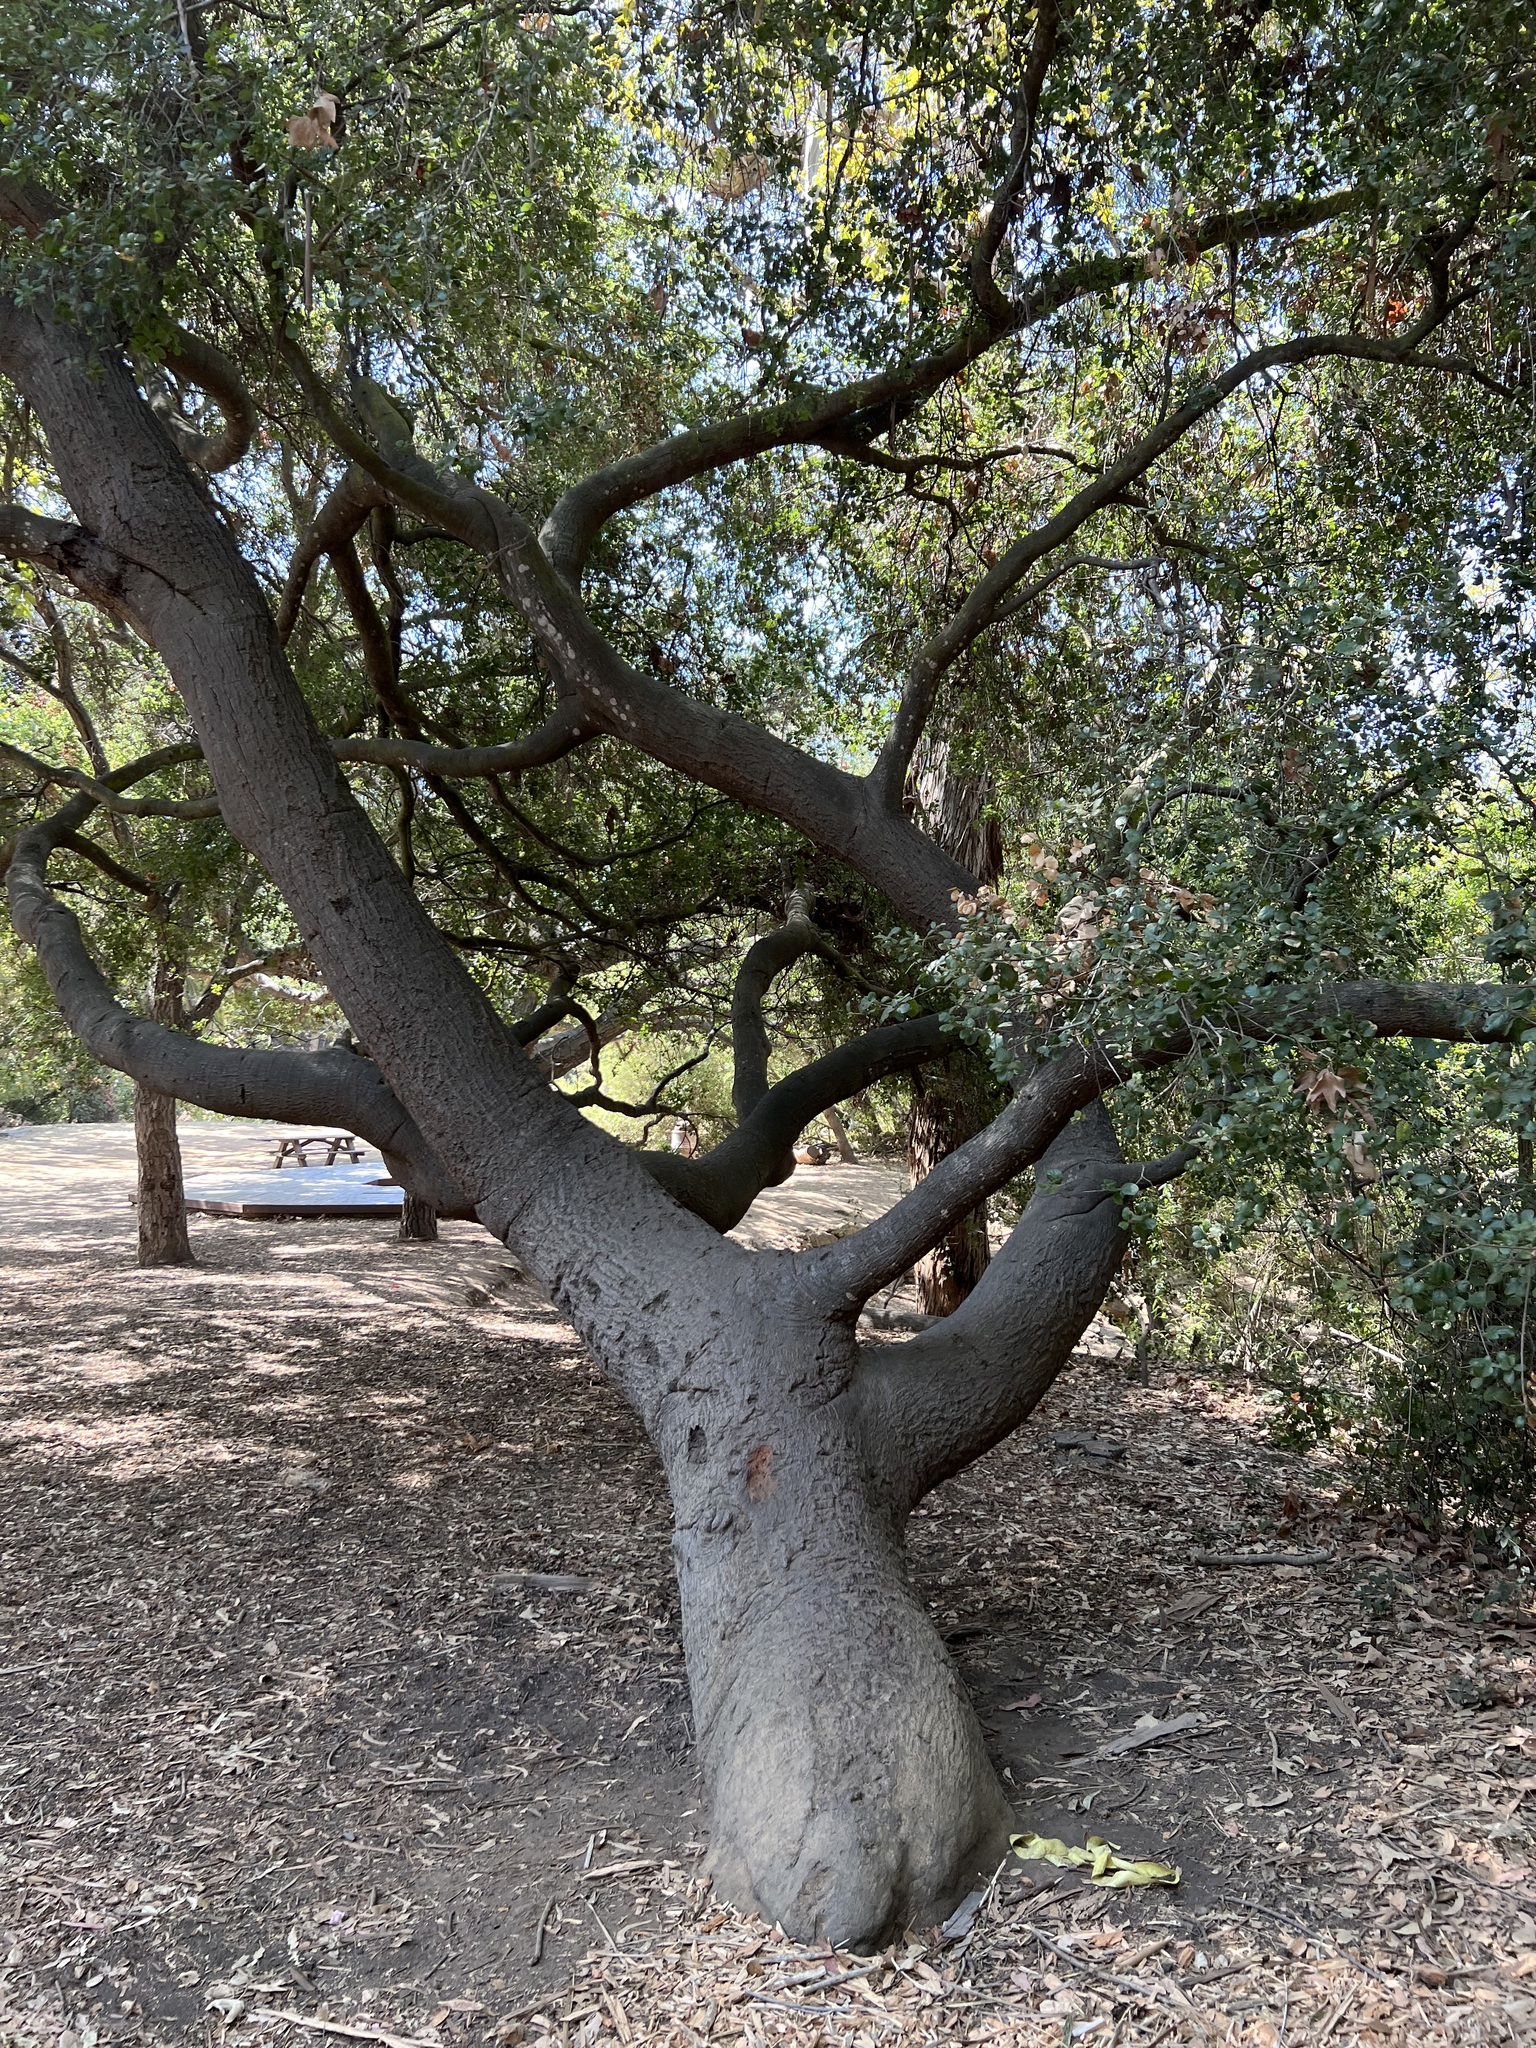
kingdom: Plantae
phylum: Tracheophyta
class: Magnoliopsida
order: Fagales
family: Fagaceae
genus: Quercus
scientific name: Quercus agrifolia
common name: California live oak
